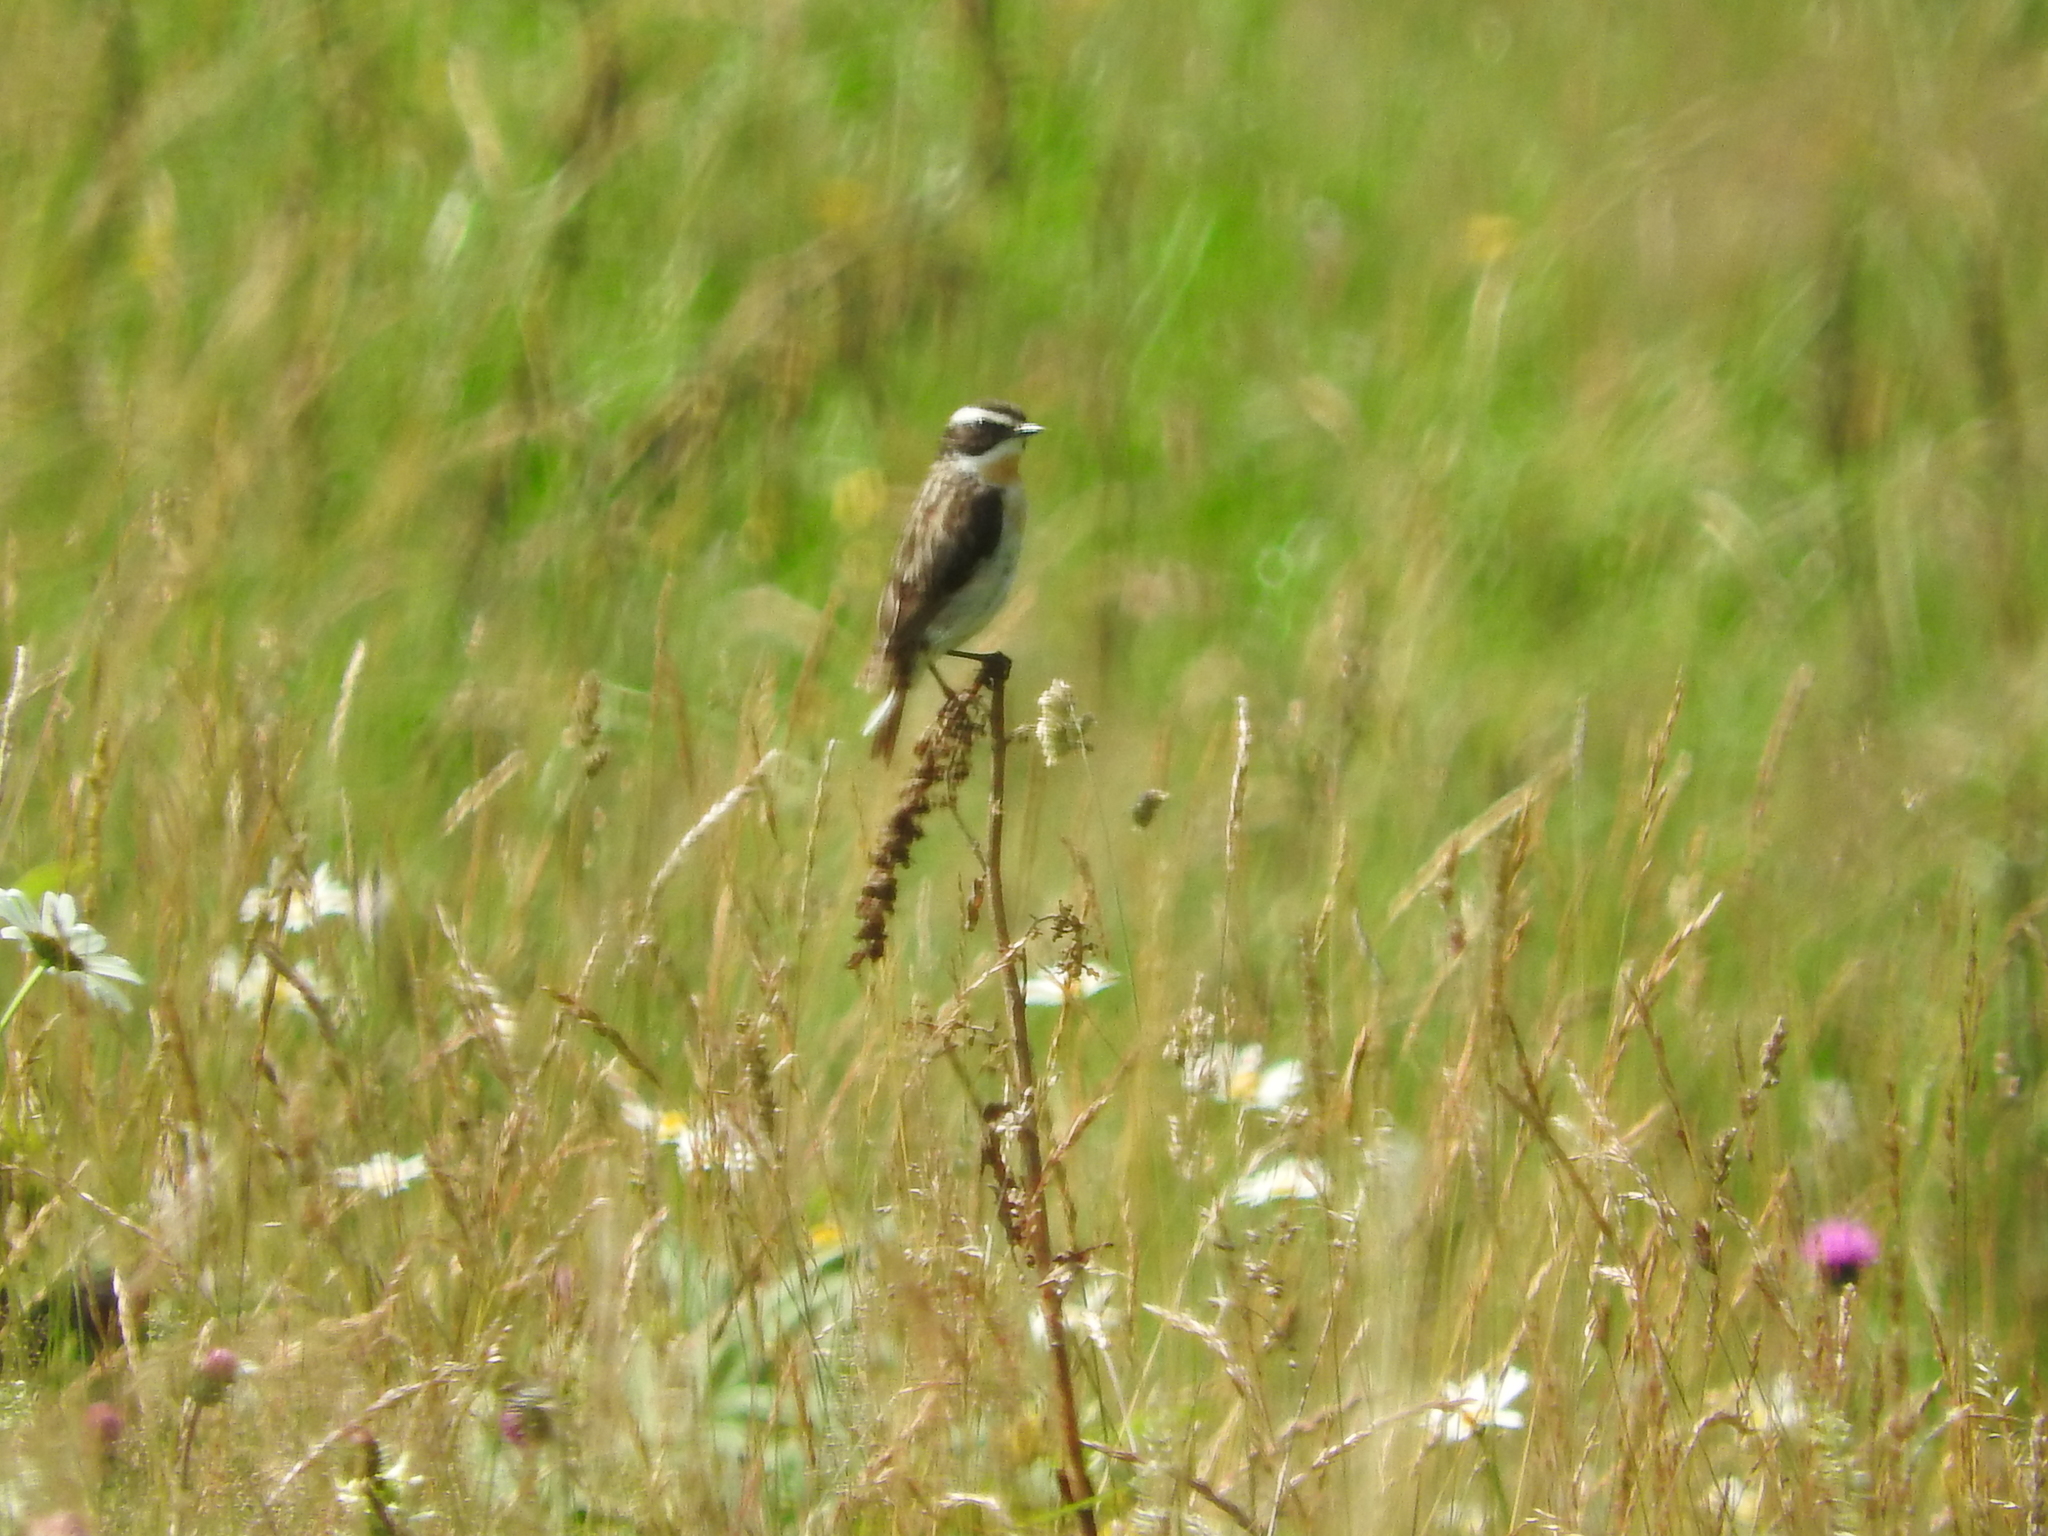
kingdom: Animalia
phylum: Chordata
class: Aves
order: Passeriformes
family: Muscicapidae
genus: Saxicola
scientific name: Saxicola rubetra
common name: Whinchat
